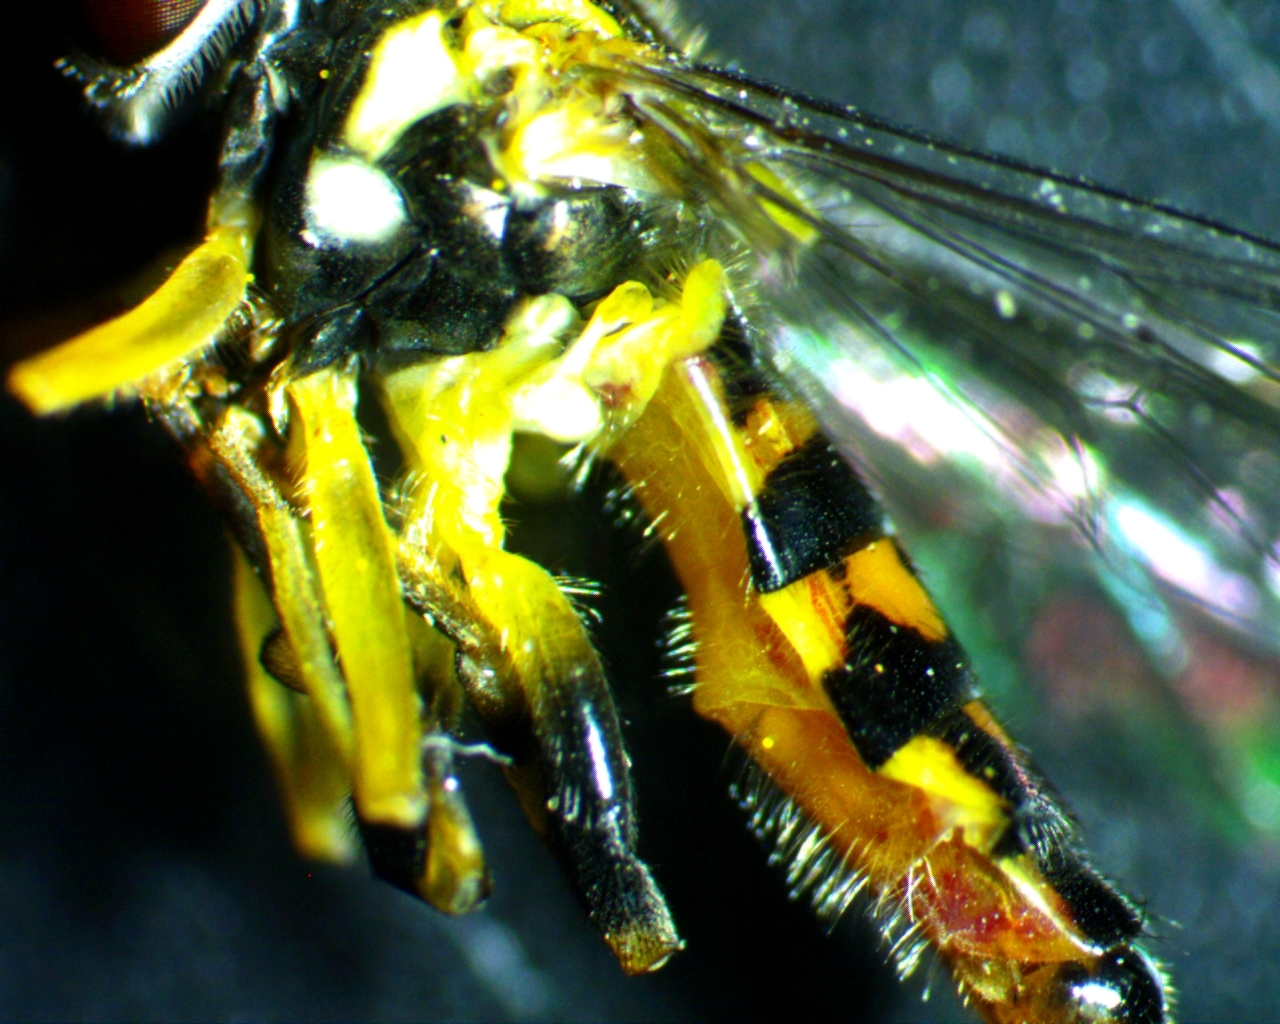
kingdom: Animalia
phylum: Arthropoda
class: Insecta
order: Diptera
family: Syrphidae
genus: Toxomerus
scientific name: Toxomerus geminatus
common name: Eastern calligrapher
